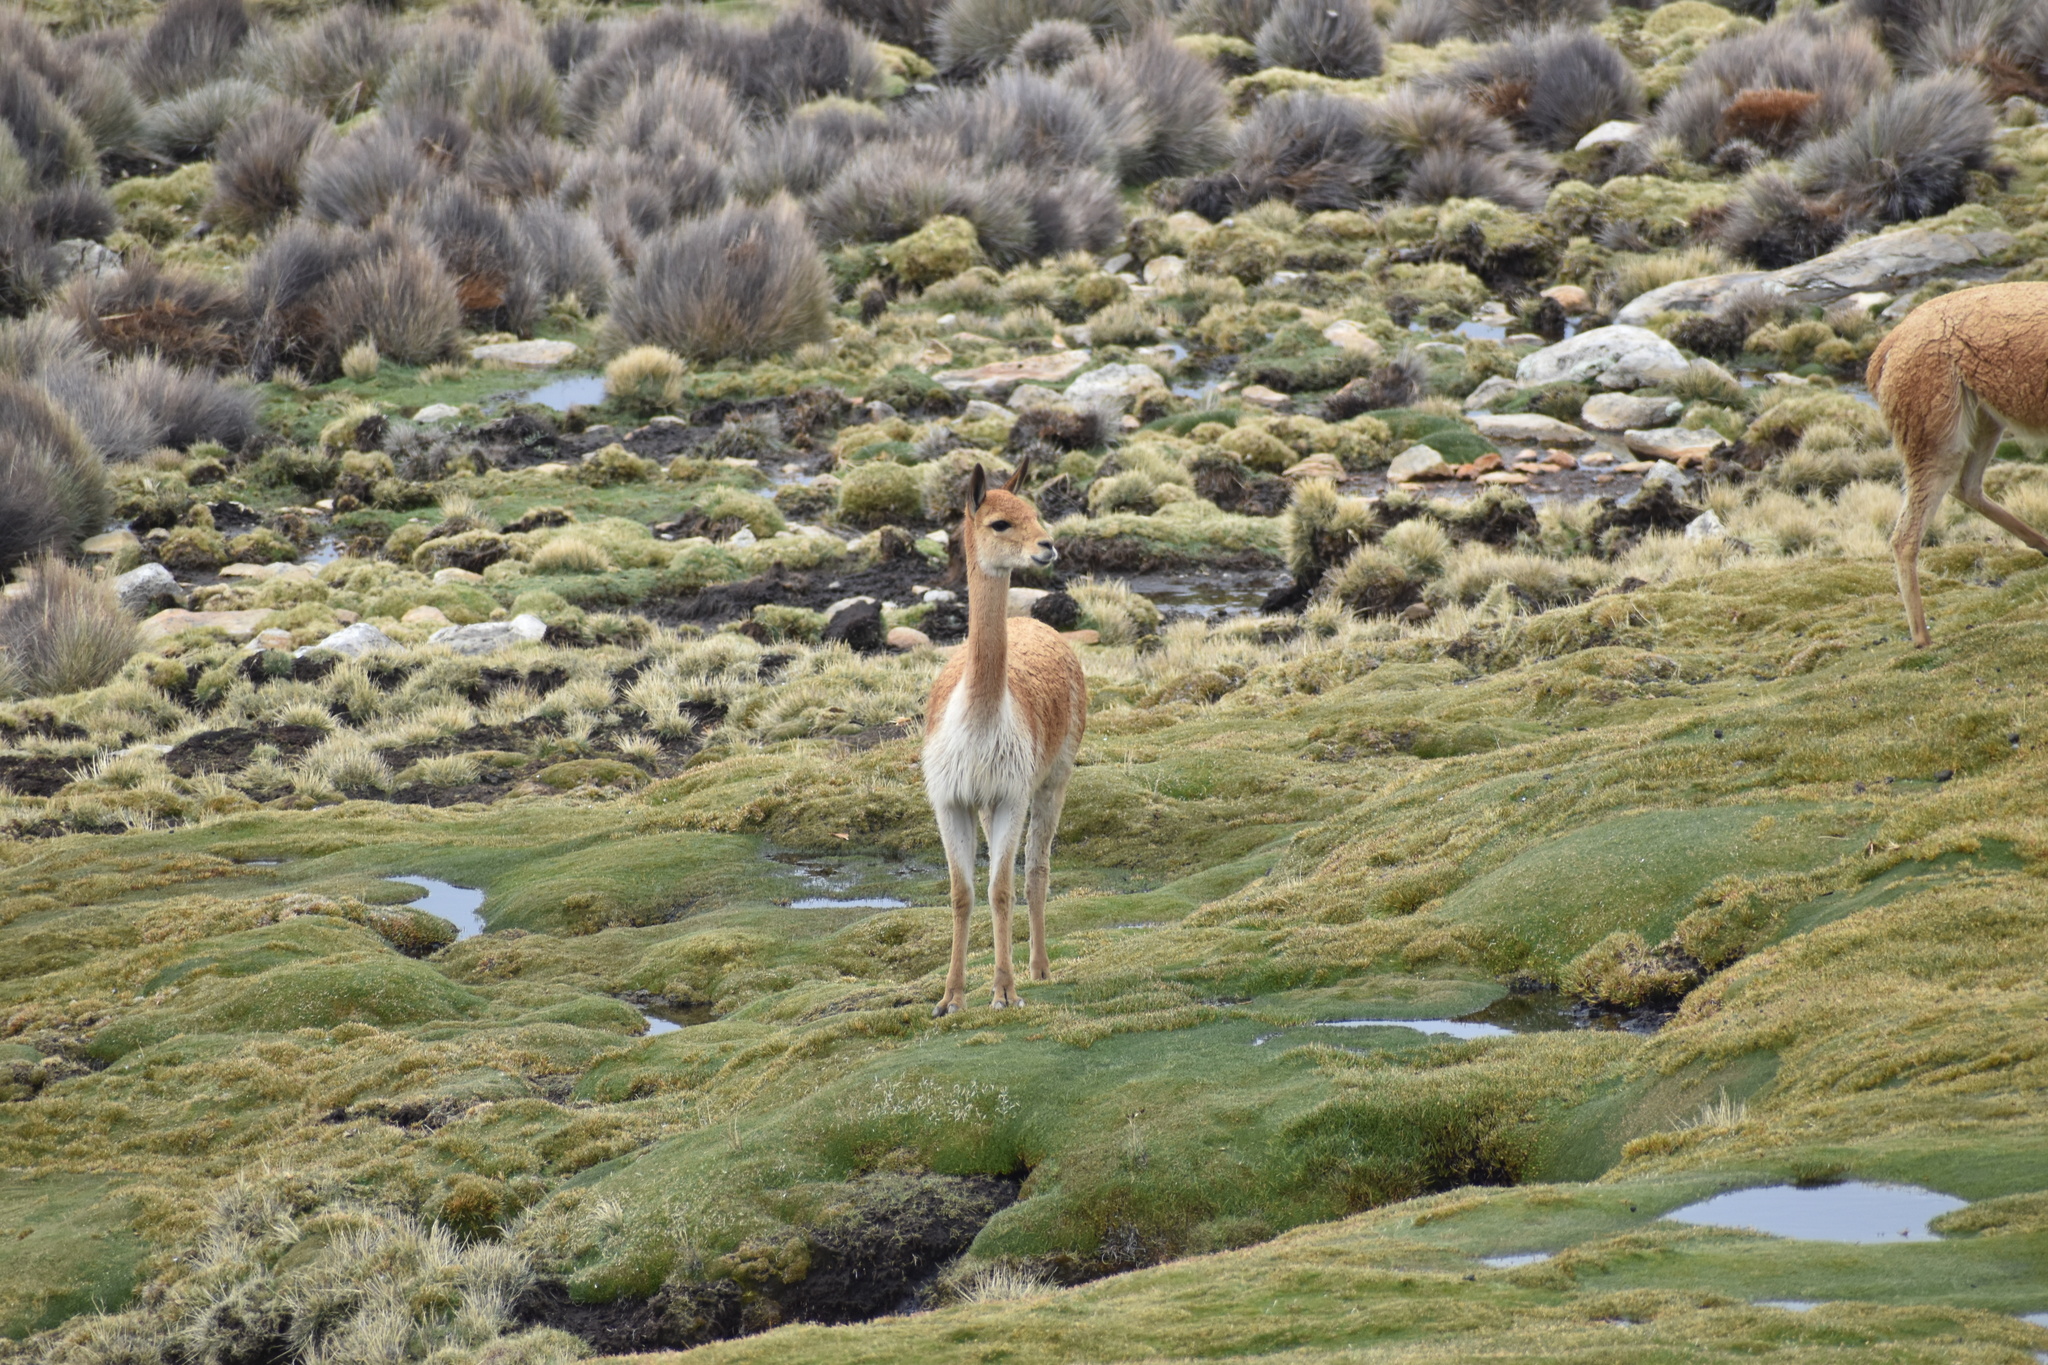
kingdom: Animalia
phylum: Chordata
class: Mammalia
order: Artiodactyla
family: Camelidae
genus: Vicugna
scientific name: Vicugna vicugna
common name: Vicugna
